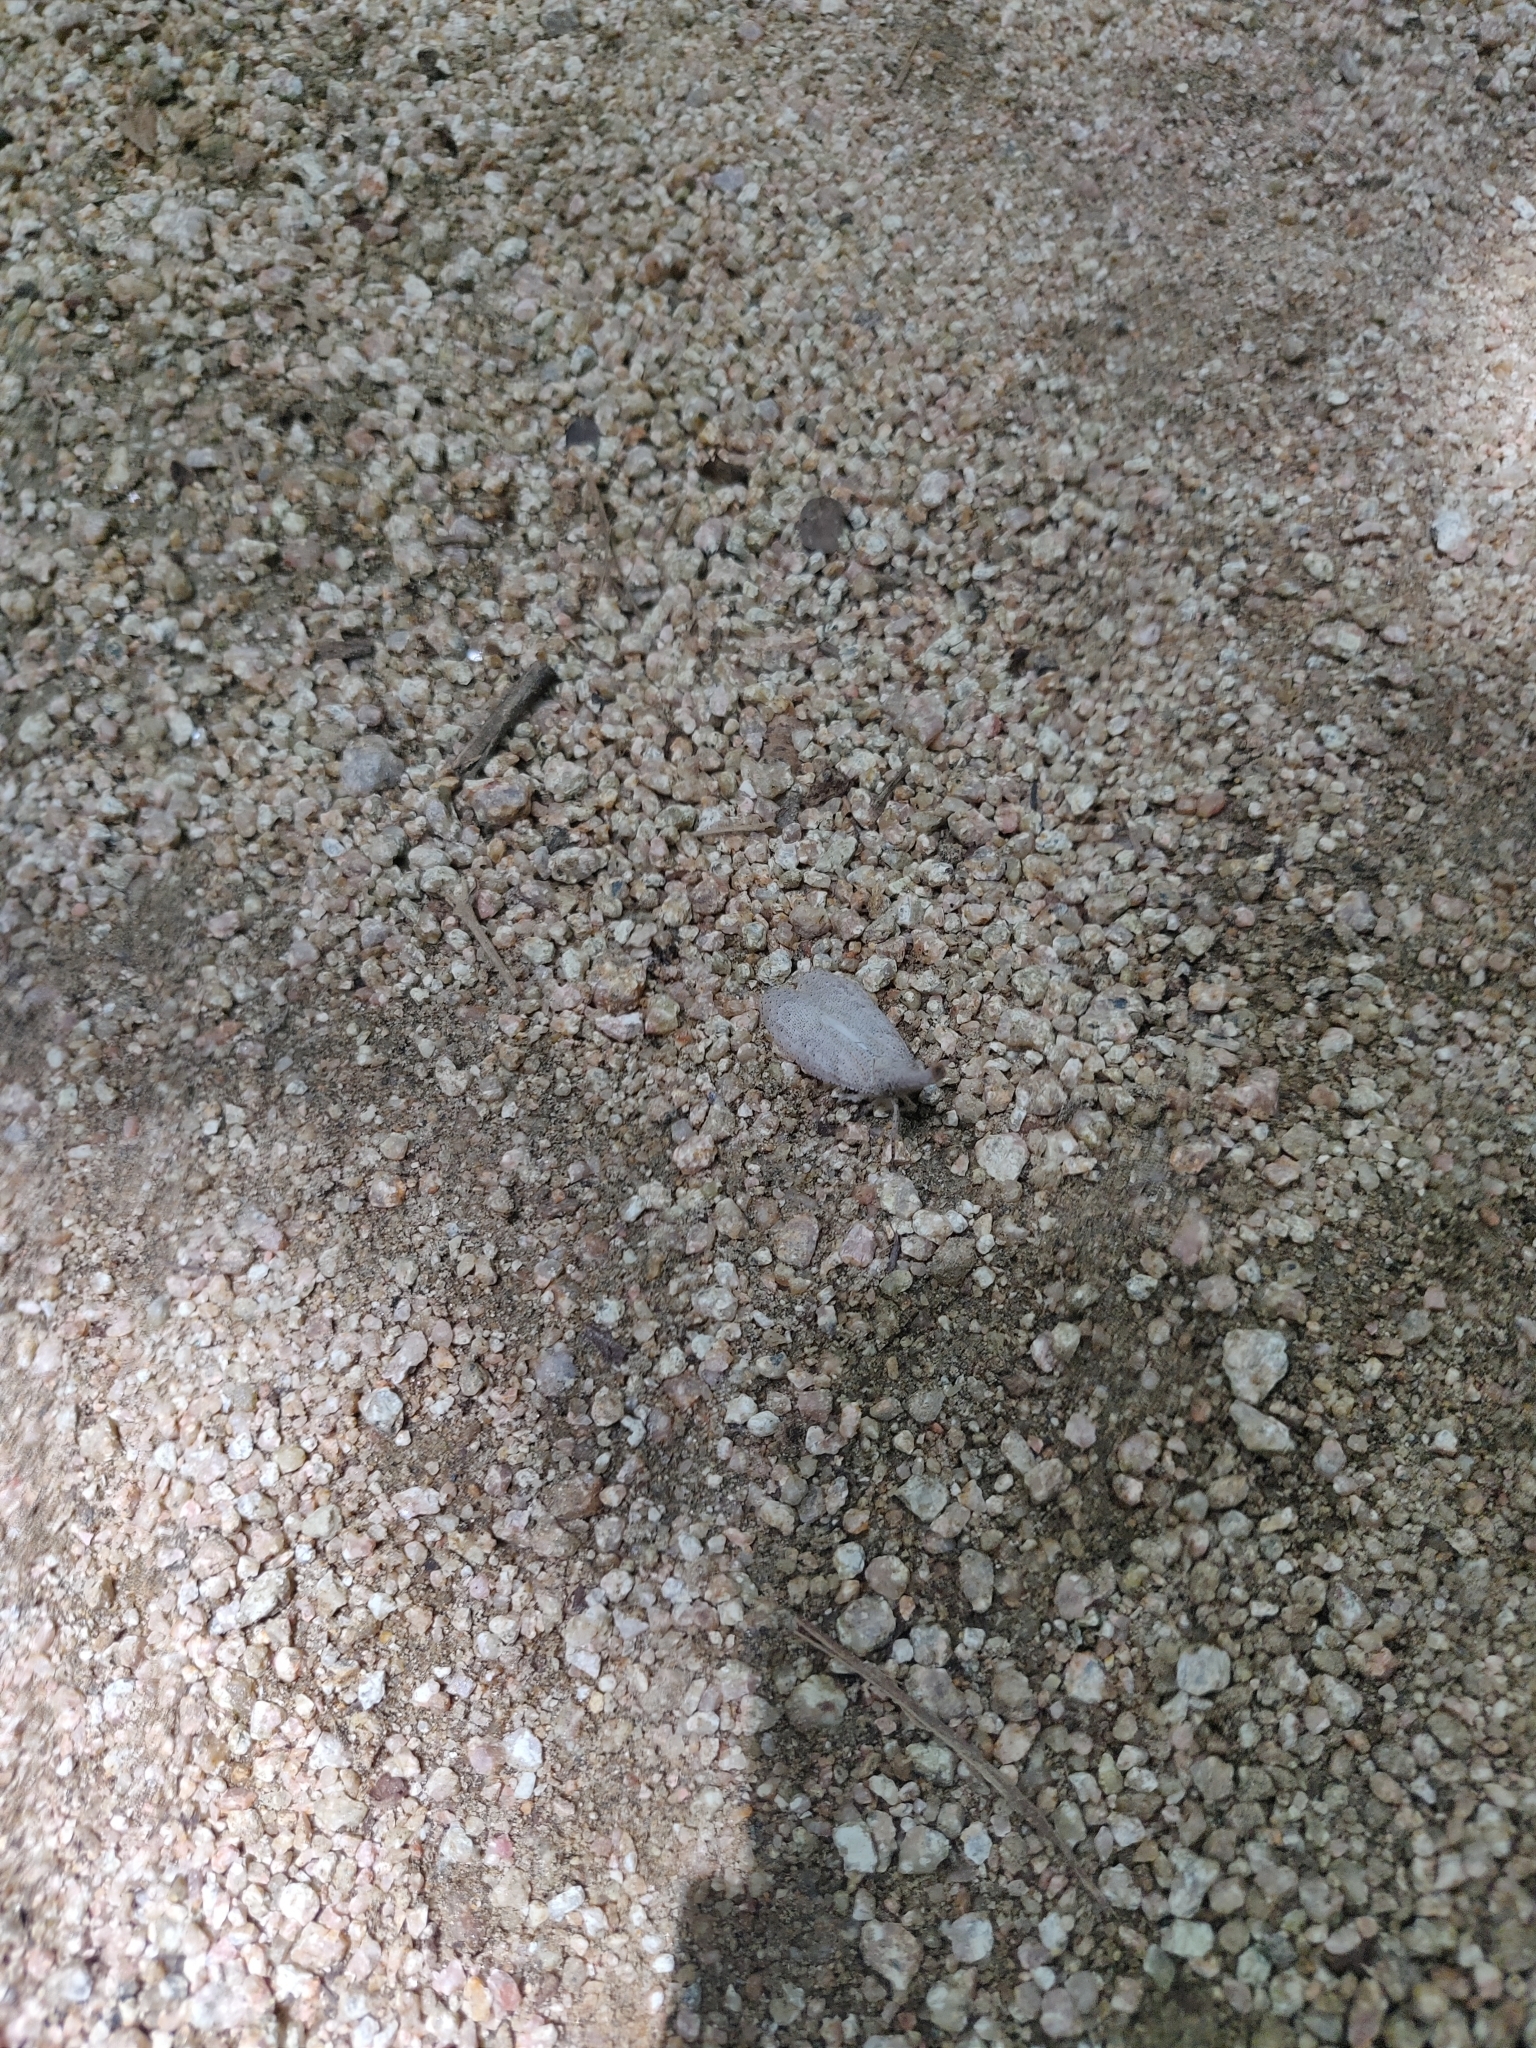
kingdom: Animalia
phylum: Arthropoda
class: Insecta
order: Hemiptera
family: Fulgoridae
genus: Zanna
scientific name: Zanna dohrni
